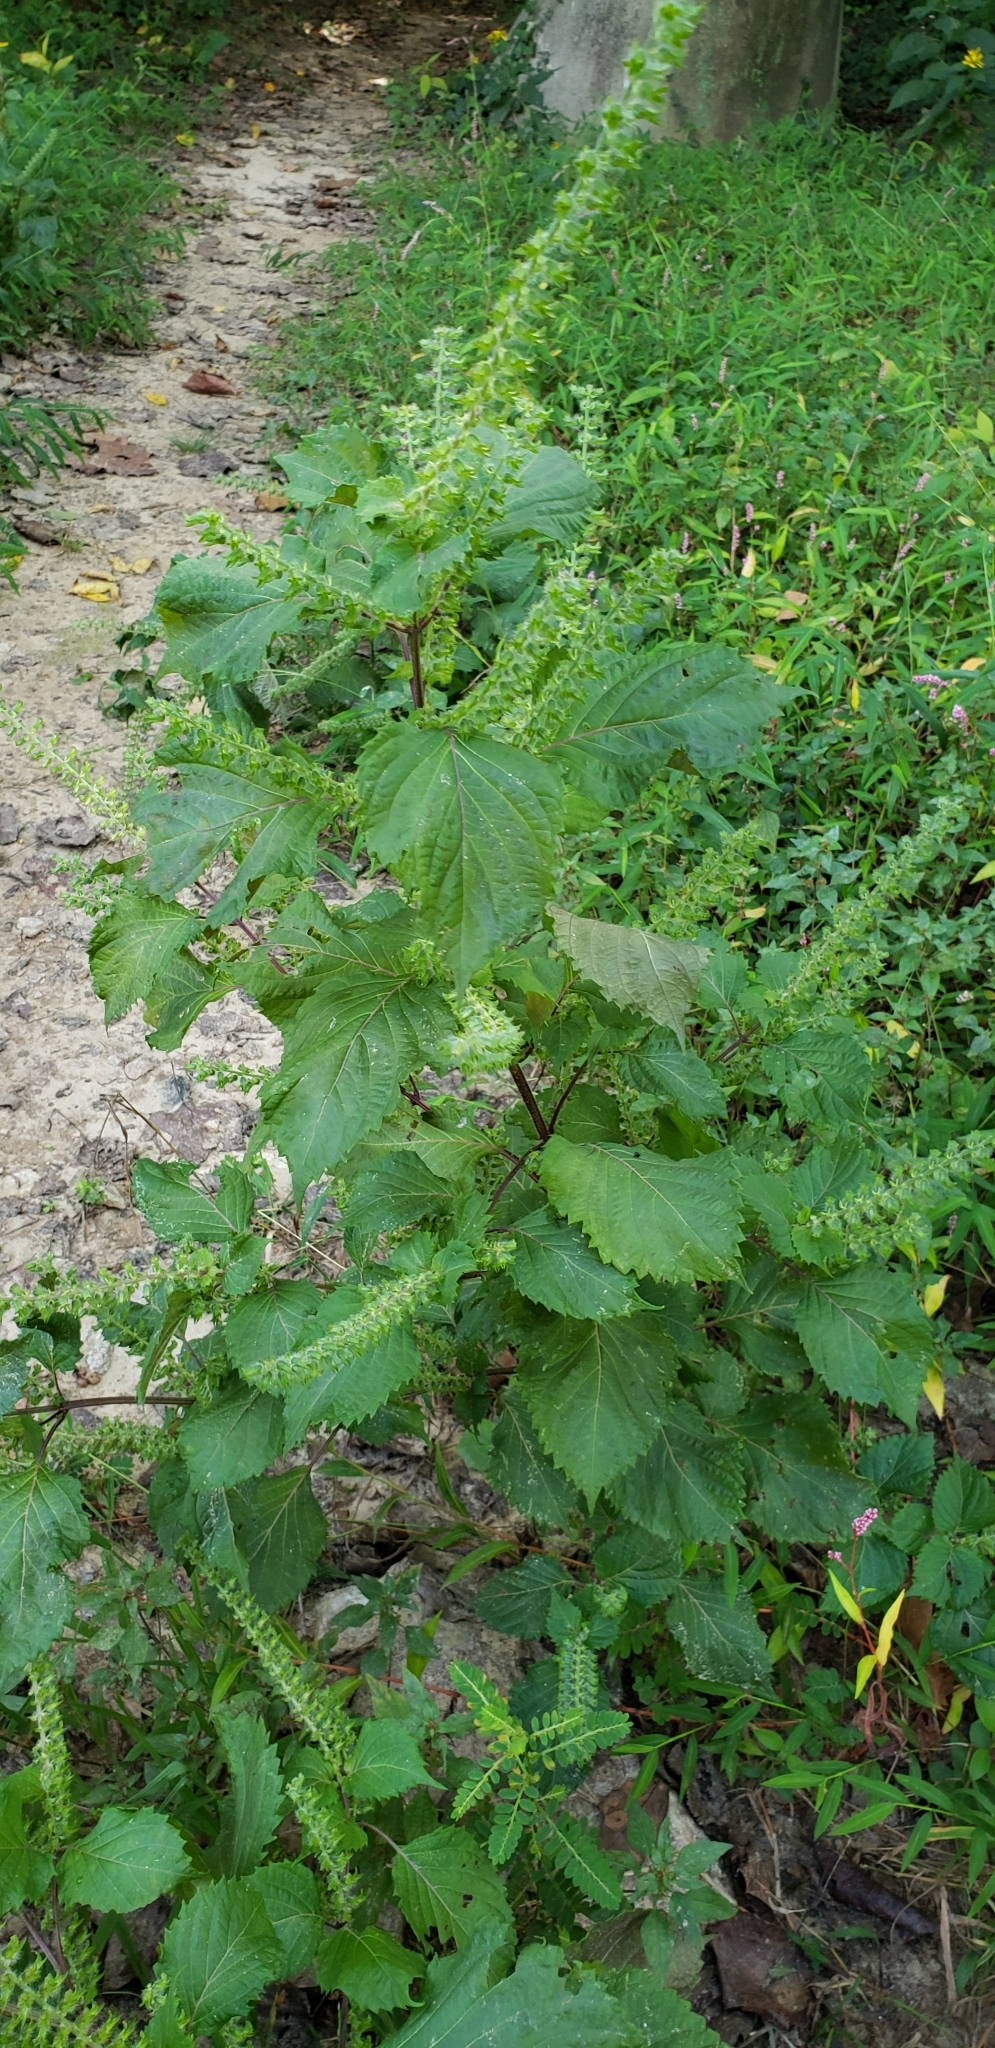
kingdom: Plantae
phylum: Tracheophyta
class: Magnoliopsida
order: Lamiales
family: Lamiaceae
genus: Perilla
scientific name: Perilla frutescens
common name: Perilla
